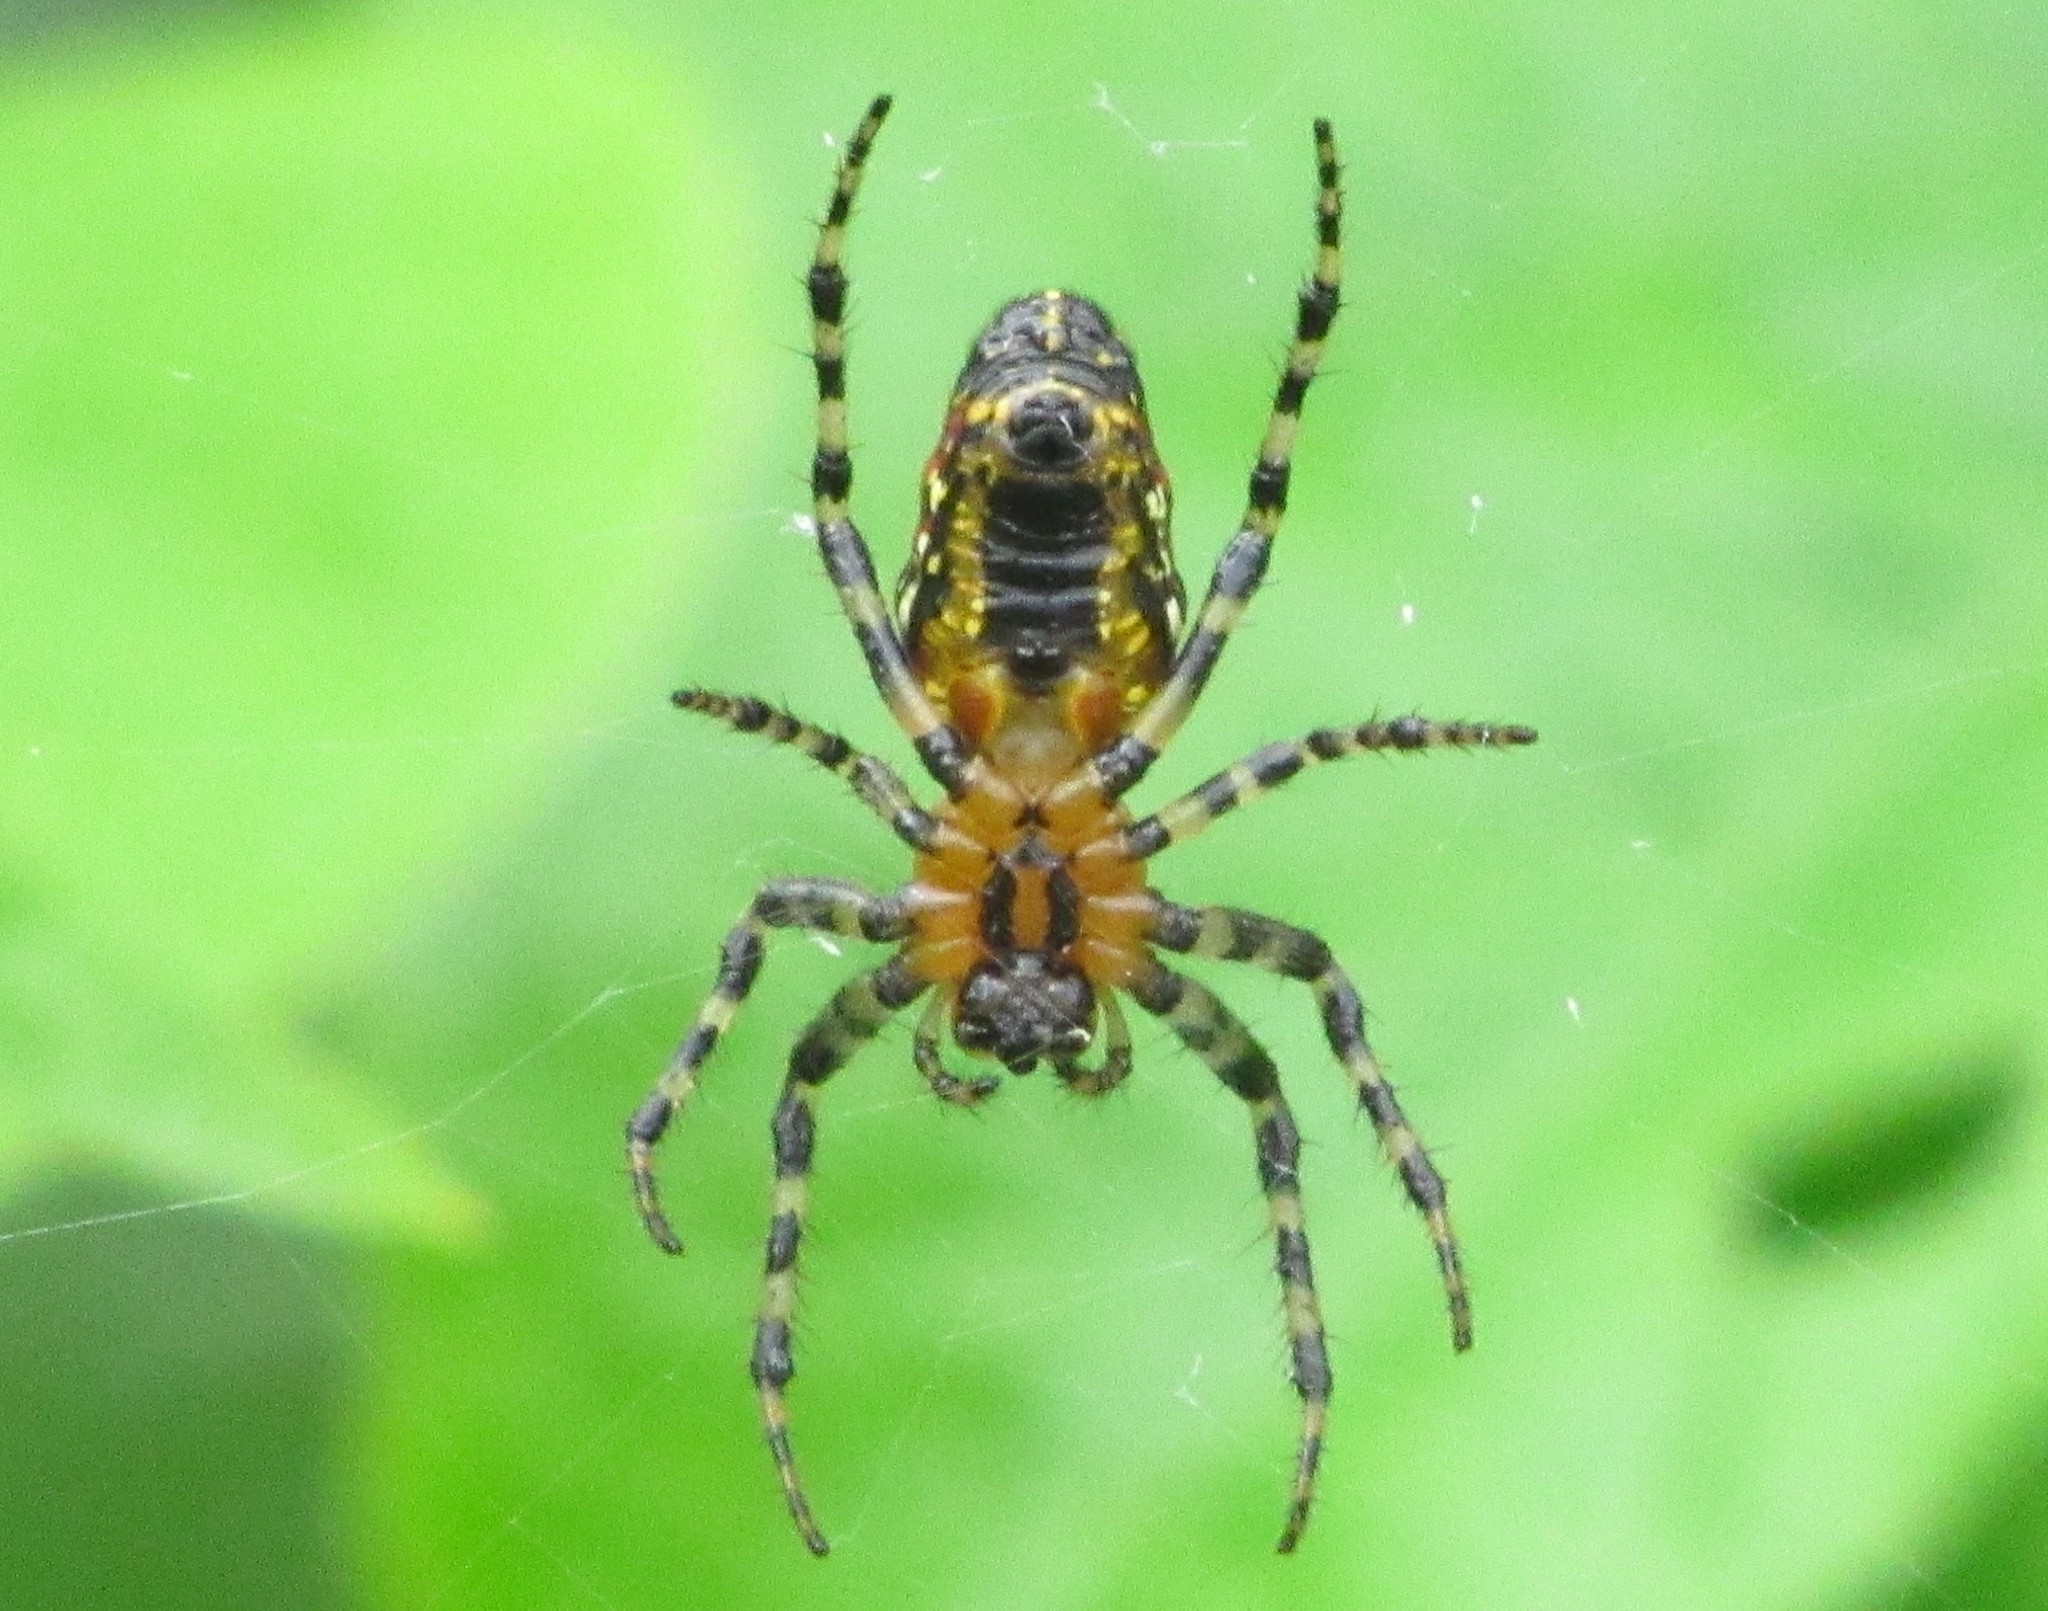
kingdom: Animalia
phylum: Arthropoda
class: Arachnida
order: Araneae
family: Araneidae
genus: Alpaida
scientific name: Alpaida grayi
